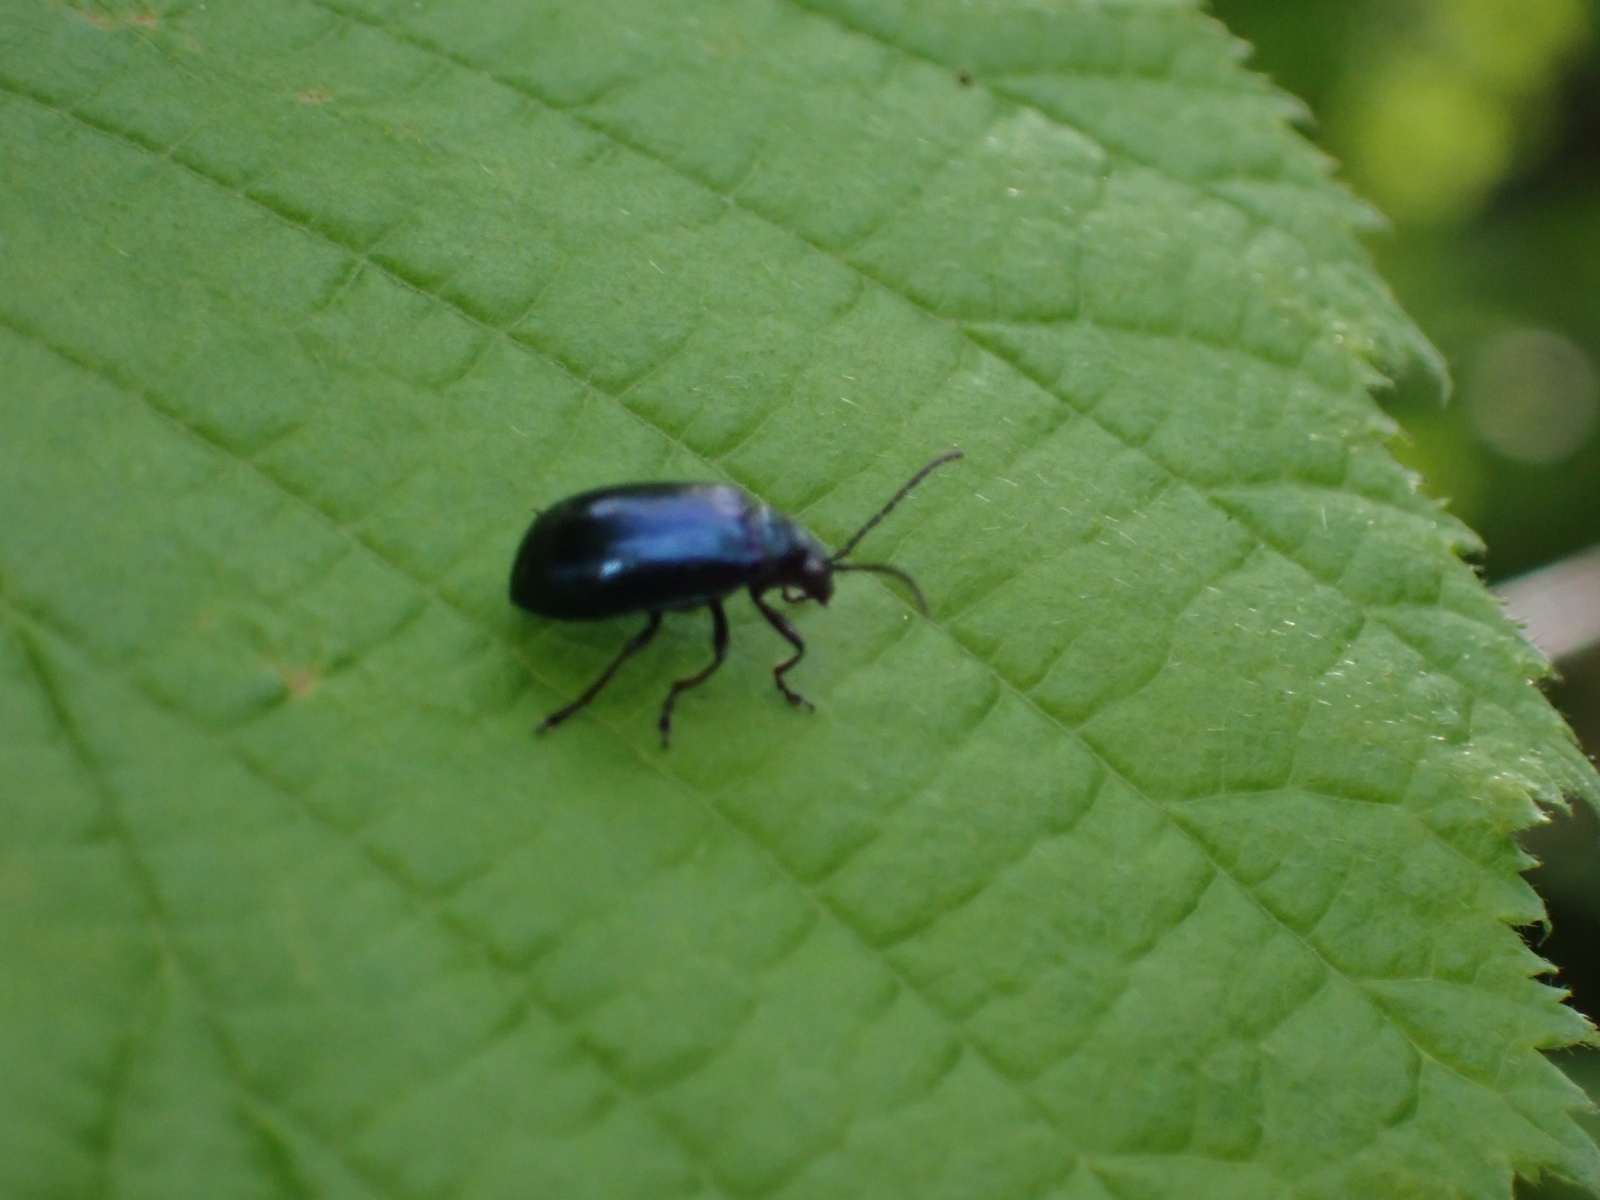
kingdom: Animalia
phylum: Arthropoda
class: Insecta
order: Coleoptera
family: Chrysomelidae
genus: Agelastica
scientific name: Agelastica alni
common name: Alder leaf beetle
